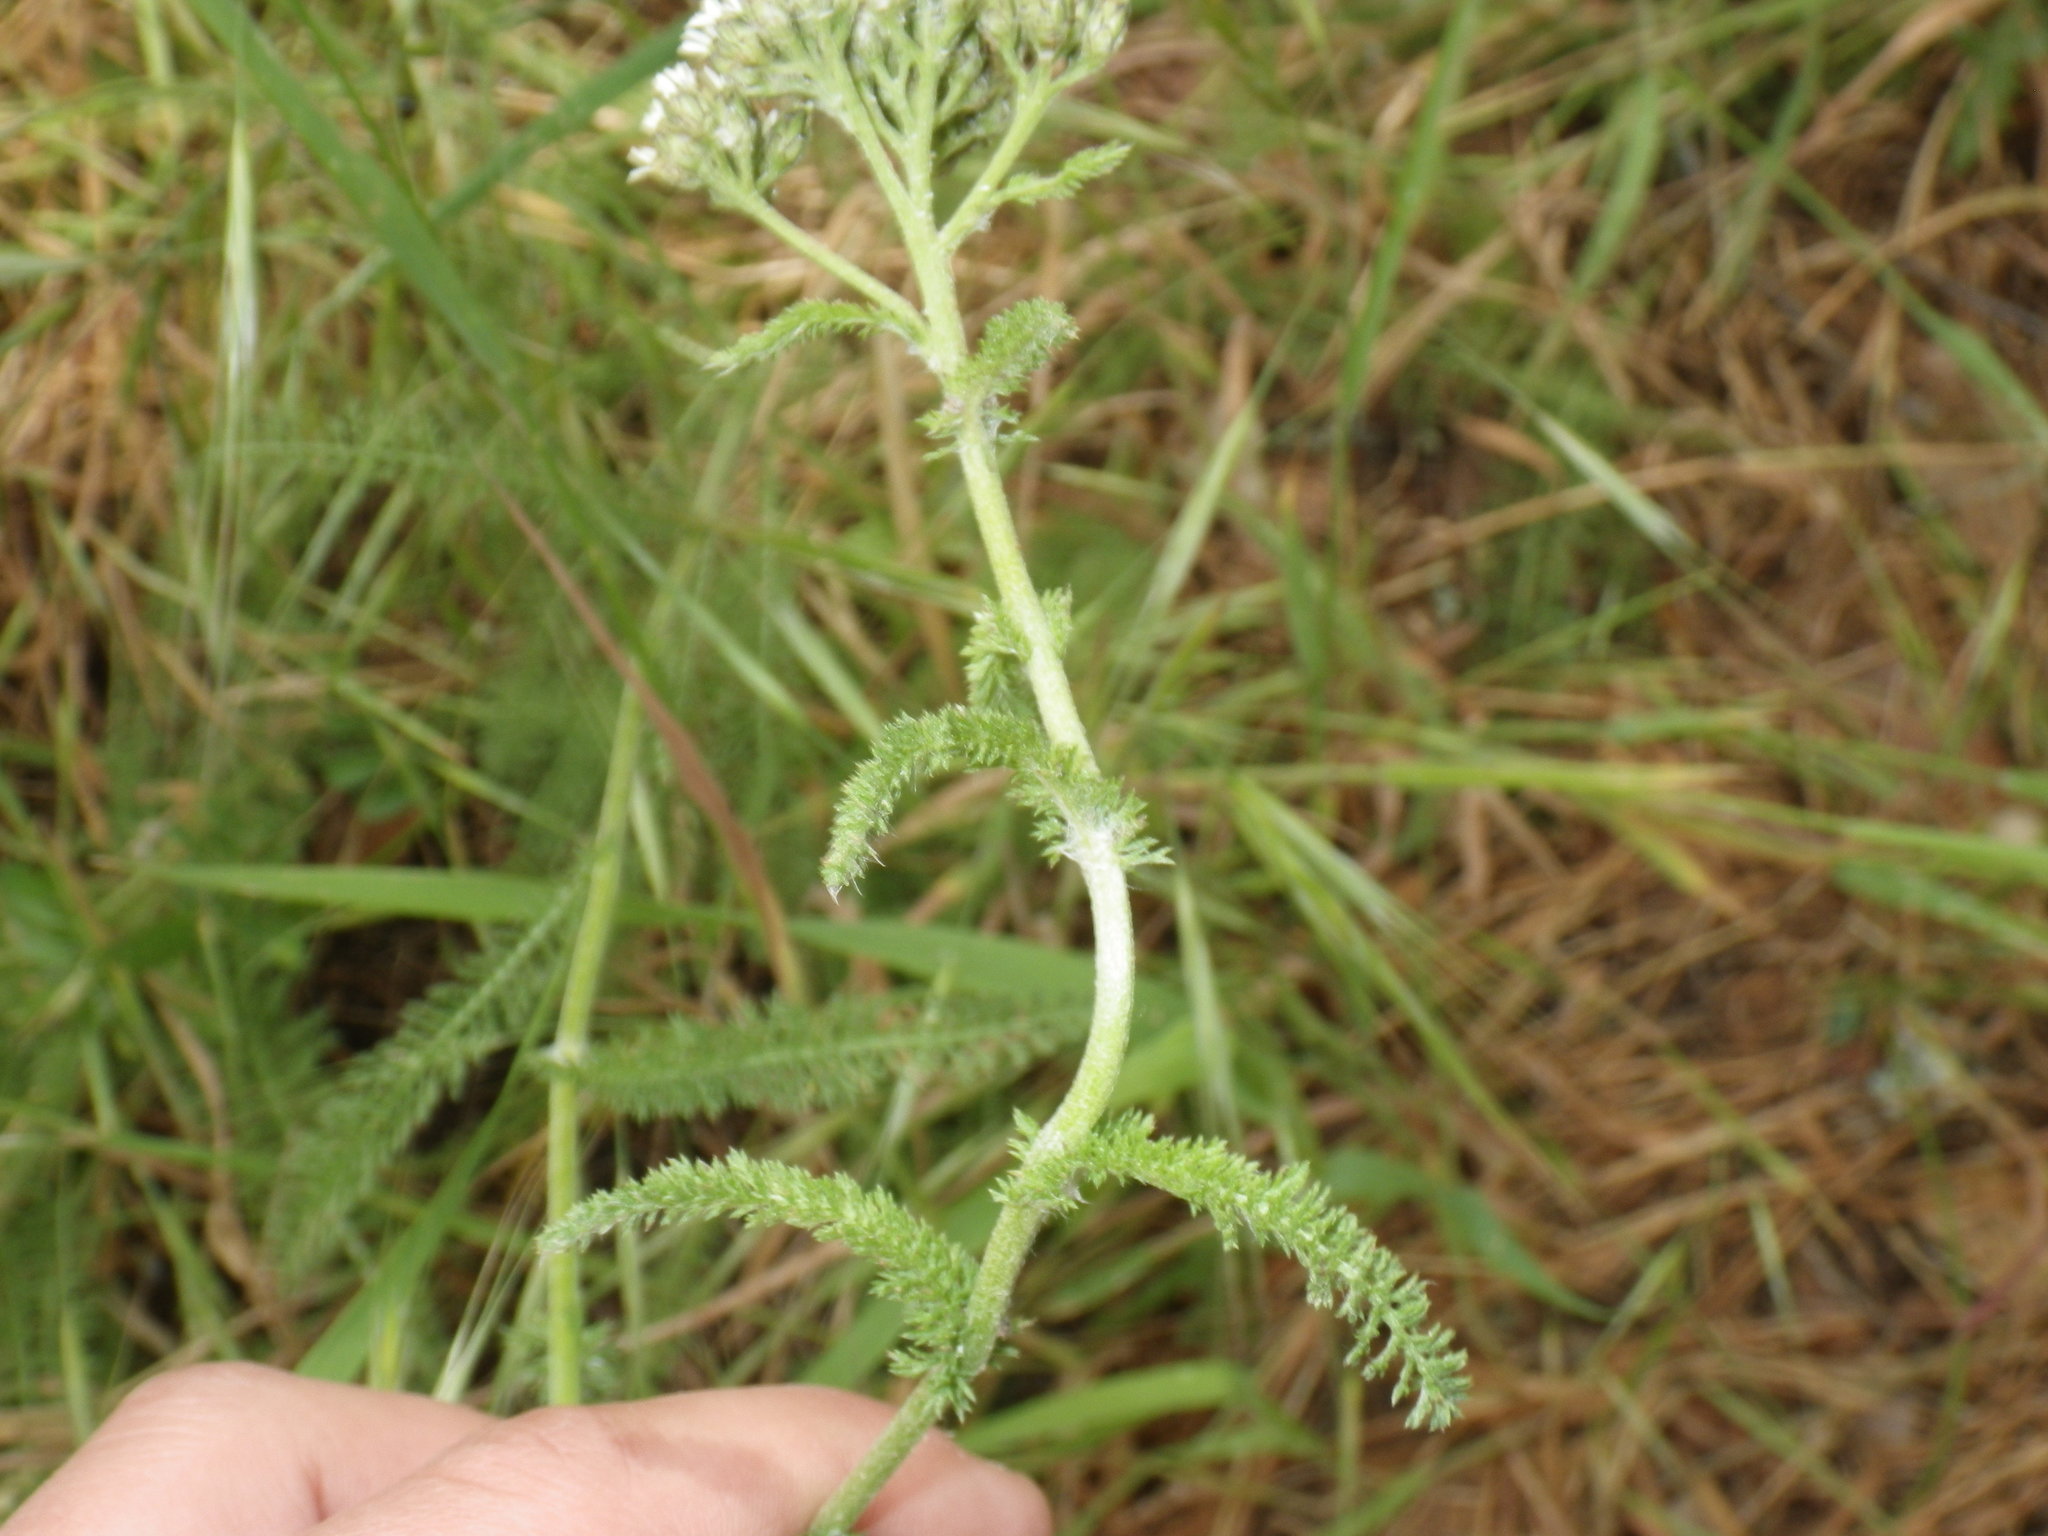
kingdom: Plantae
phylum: Tracheophyta
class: Magnoliopsida
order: Asterales
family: Asteraceae
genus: Achillea
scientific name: Achillea millefolium
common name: Yarrow
